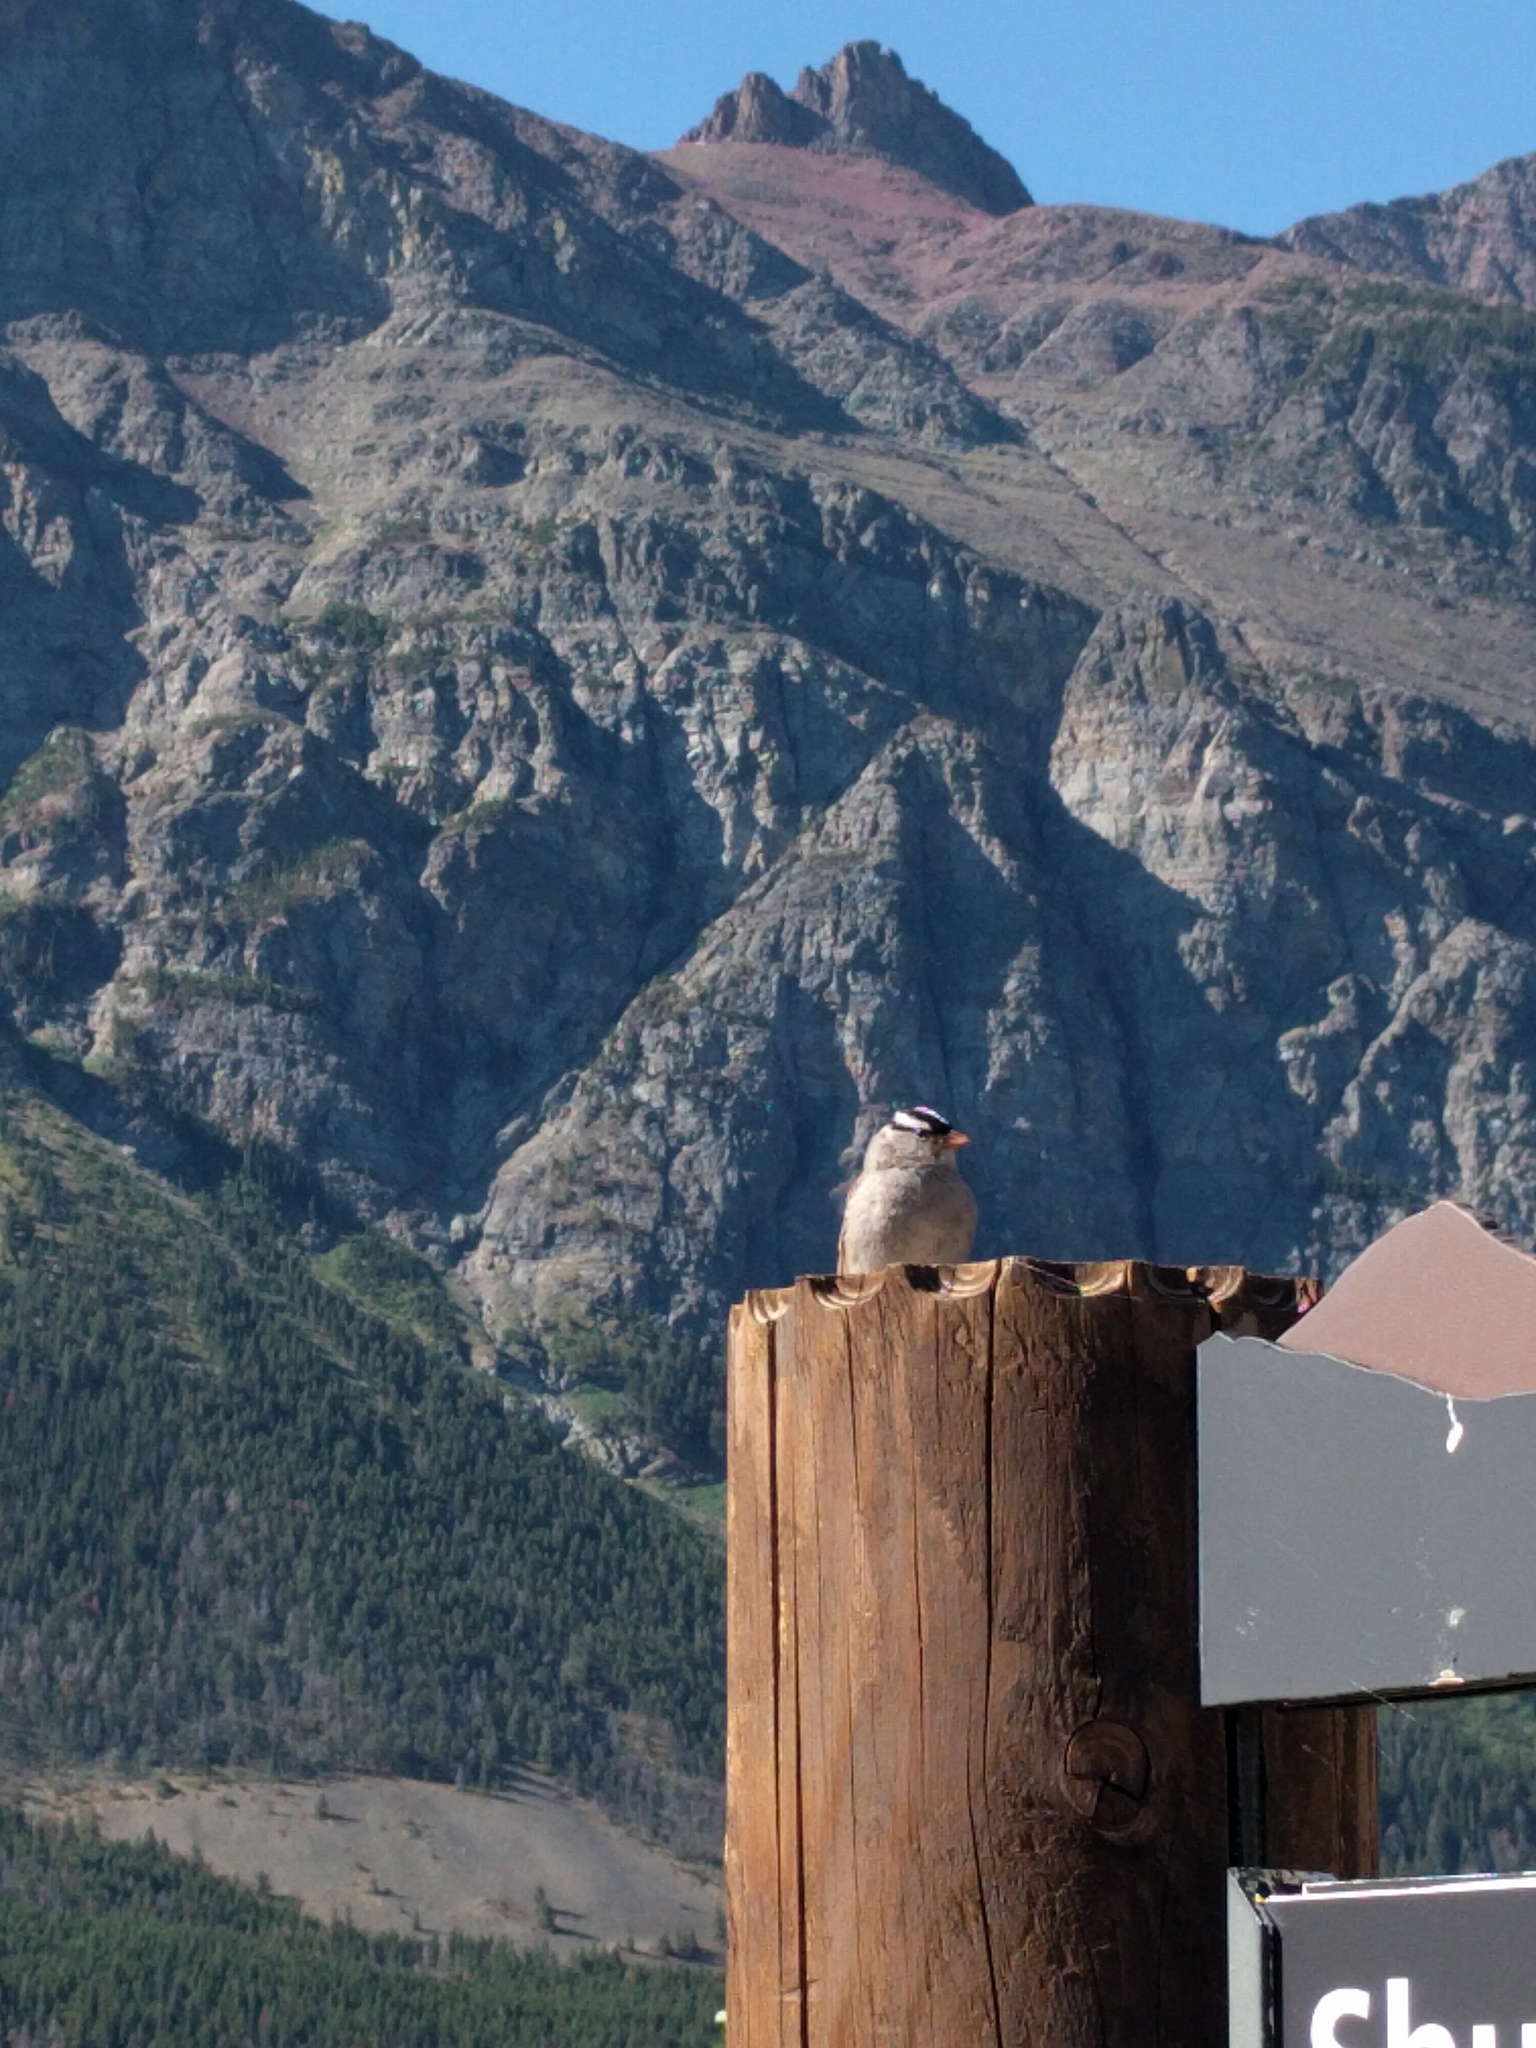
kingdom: Animalia
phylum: Chordata
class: Aves
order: Passeriformes
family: Passerellidae
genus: Zonotrichia
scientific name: Zonotrichia leucophrys
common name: White-crowned sparrow
